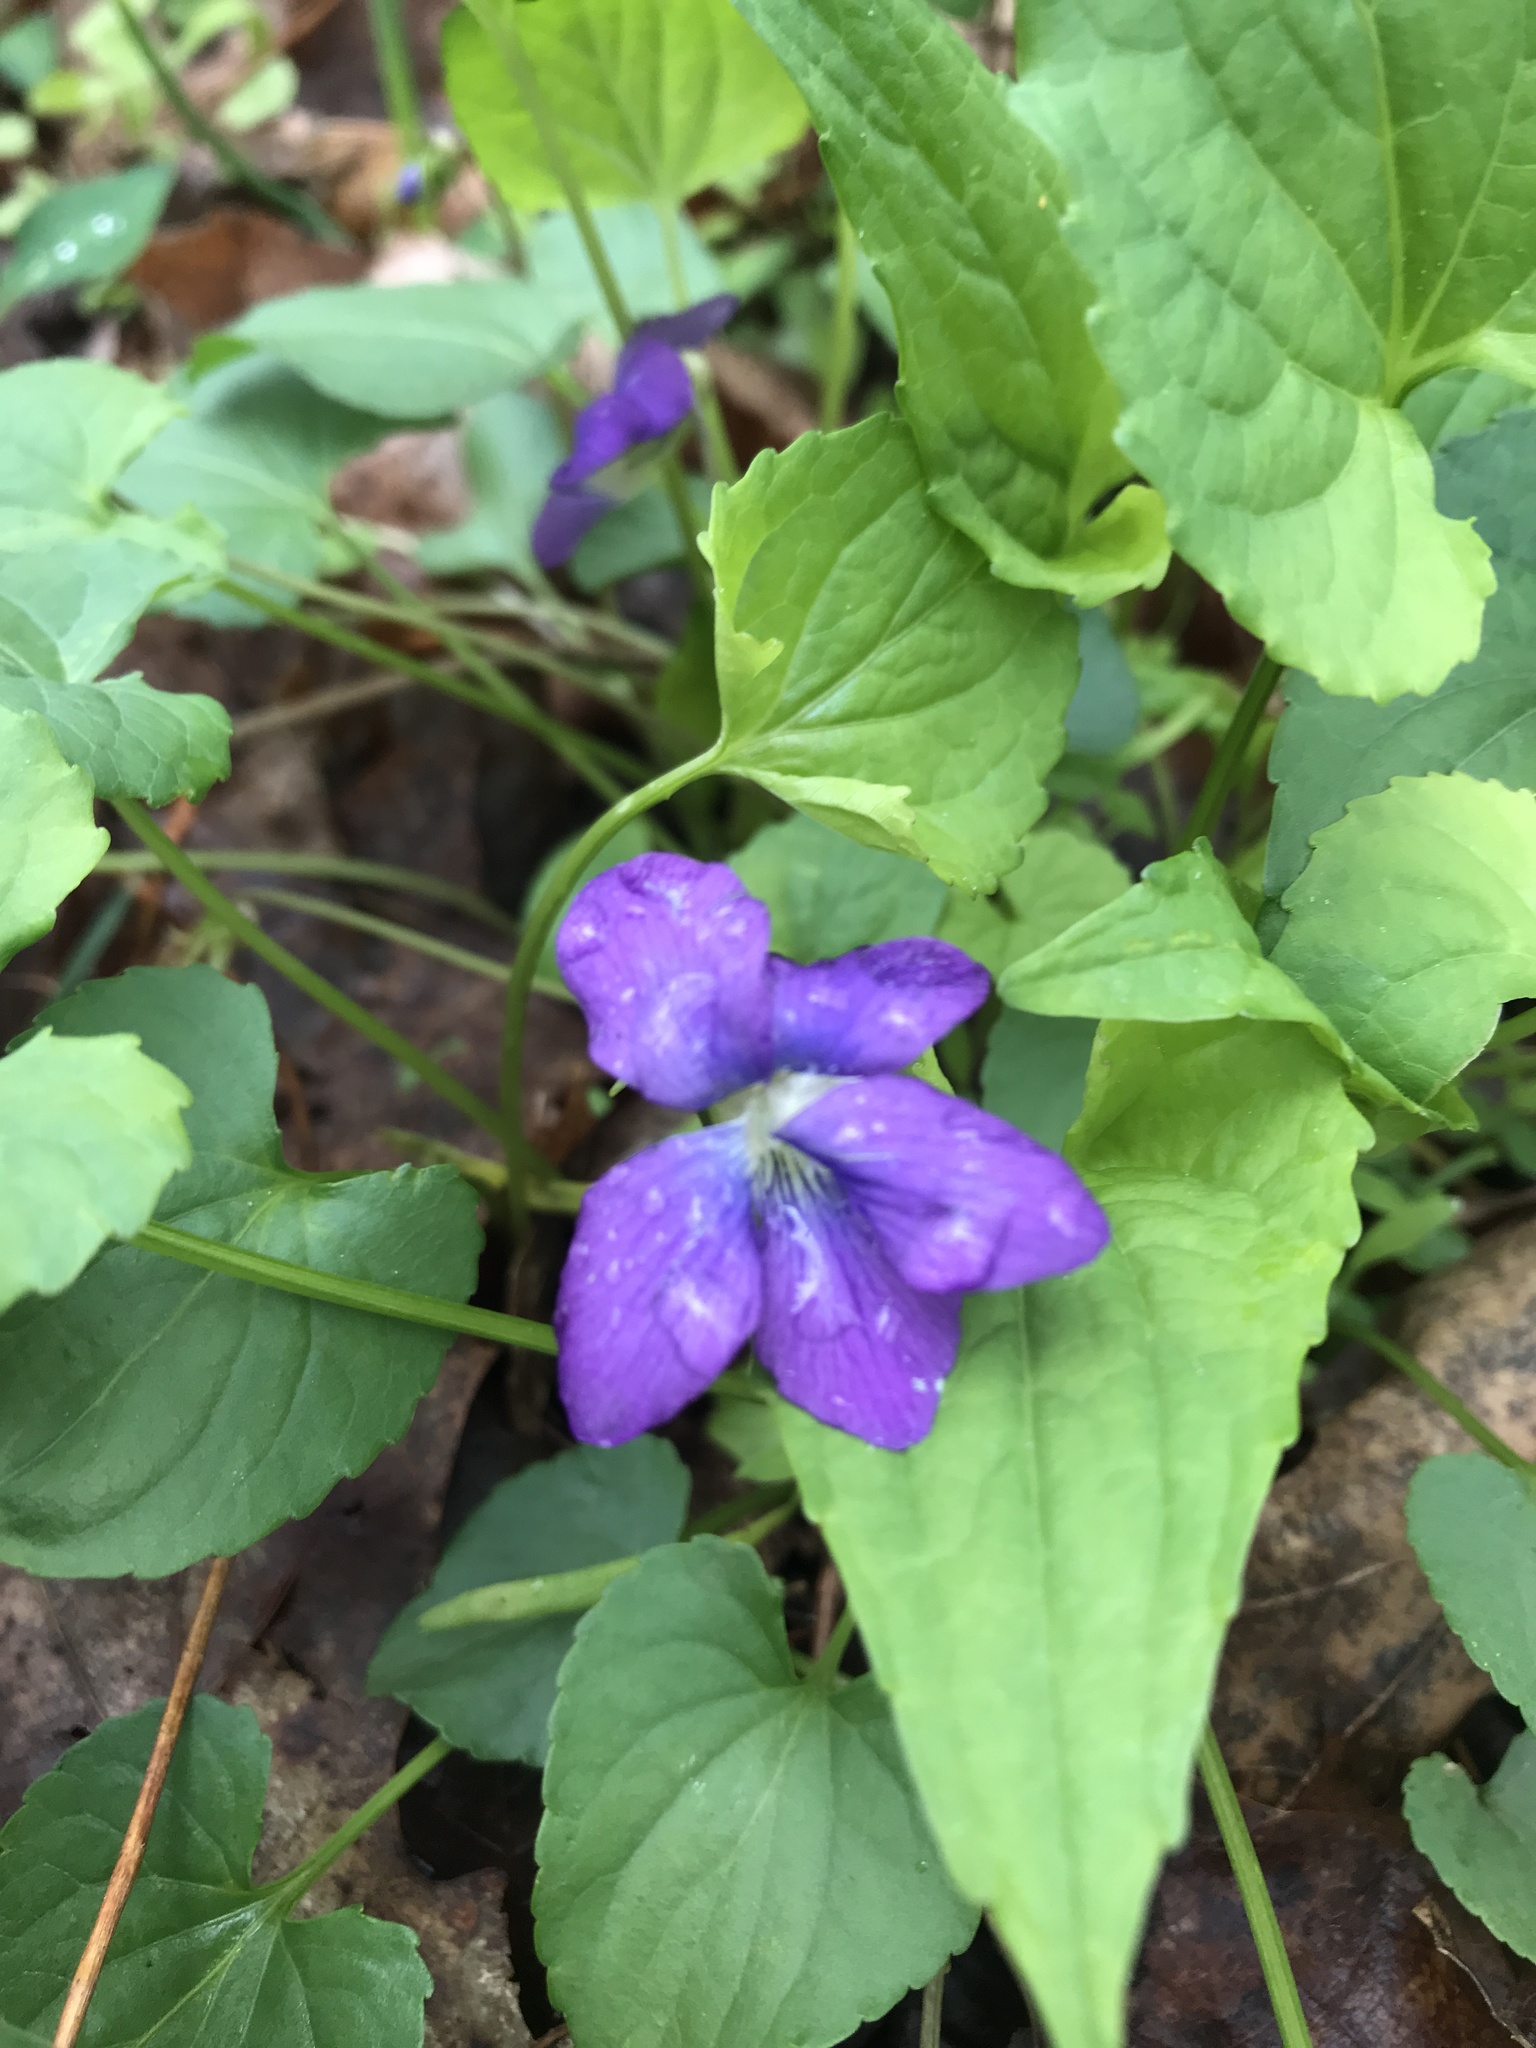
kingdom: Plantae
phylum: Tracheophyta
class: Magnoliopsida
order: Malpighiales
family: Violaceae
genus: Viola
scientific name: Viola sororia
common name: Dooryard violet
